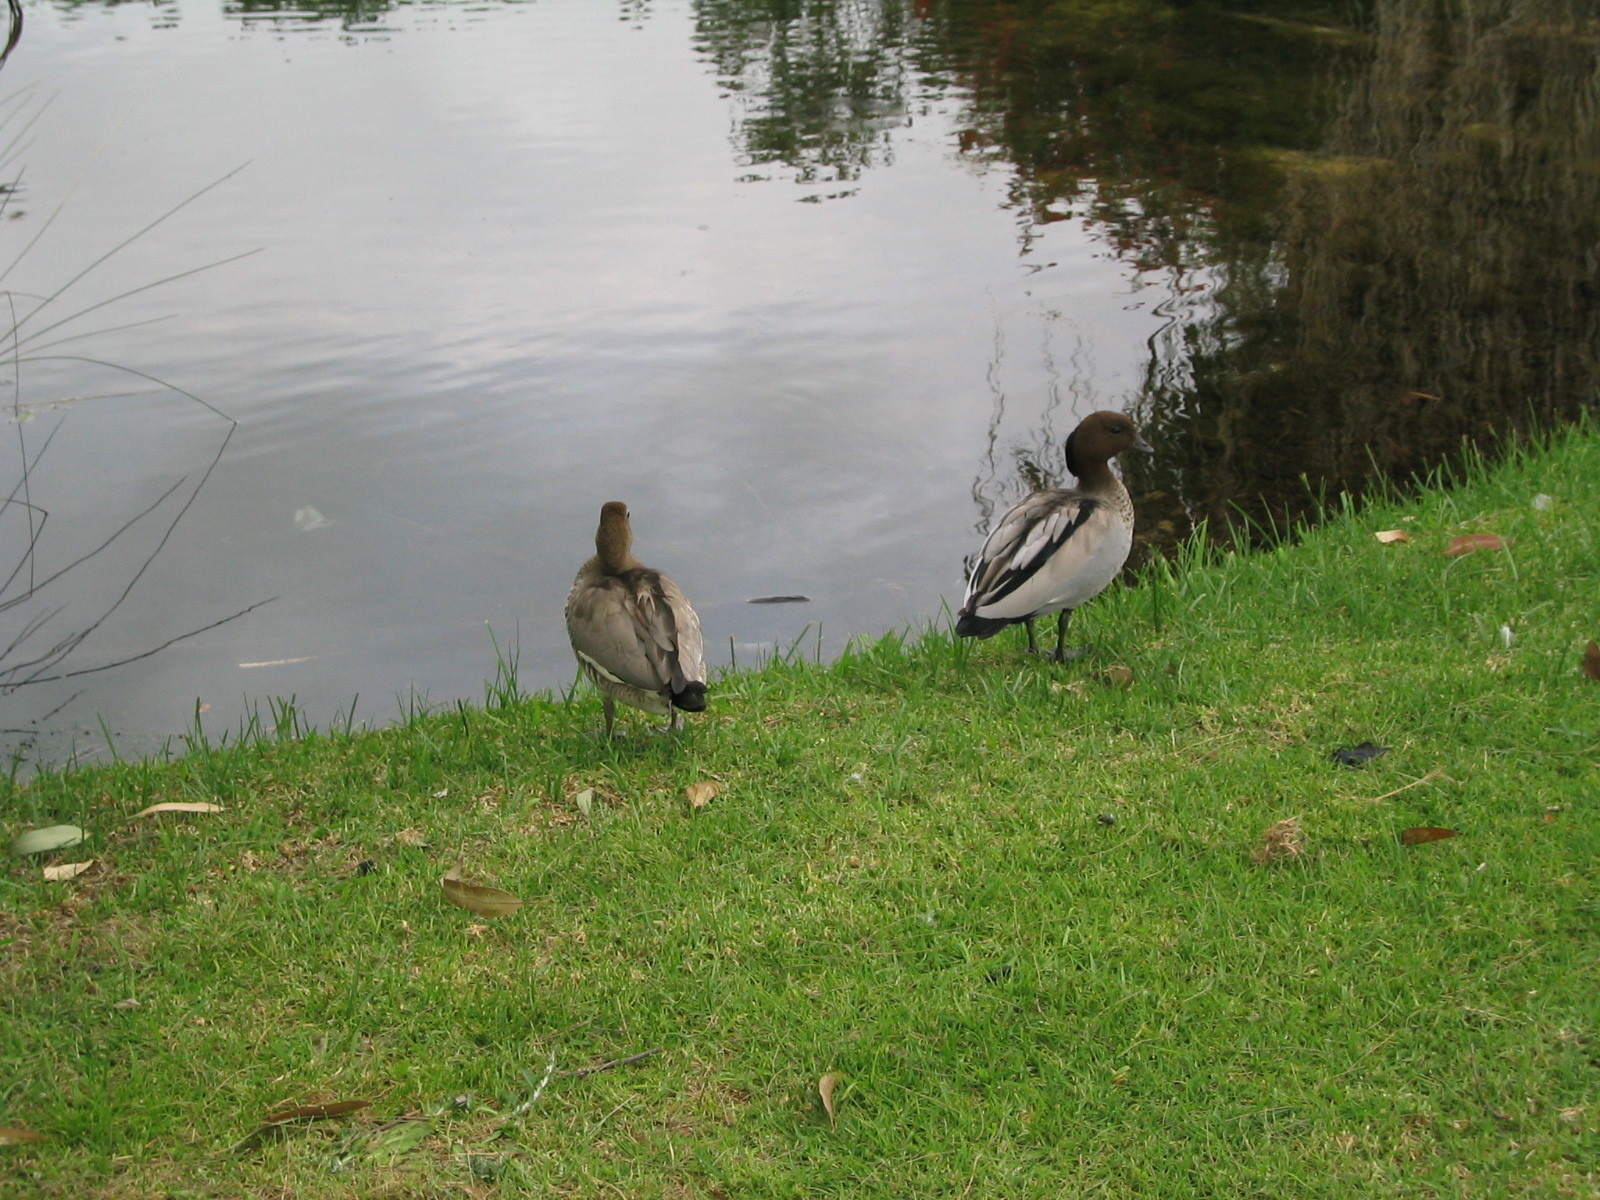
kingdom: Animalia
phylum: Chordata
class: Aves
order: Anseriformes
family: Anatidae
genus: Chenonetta
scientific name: Chenonetta jubata
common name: Maned duck
